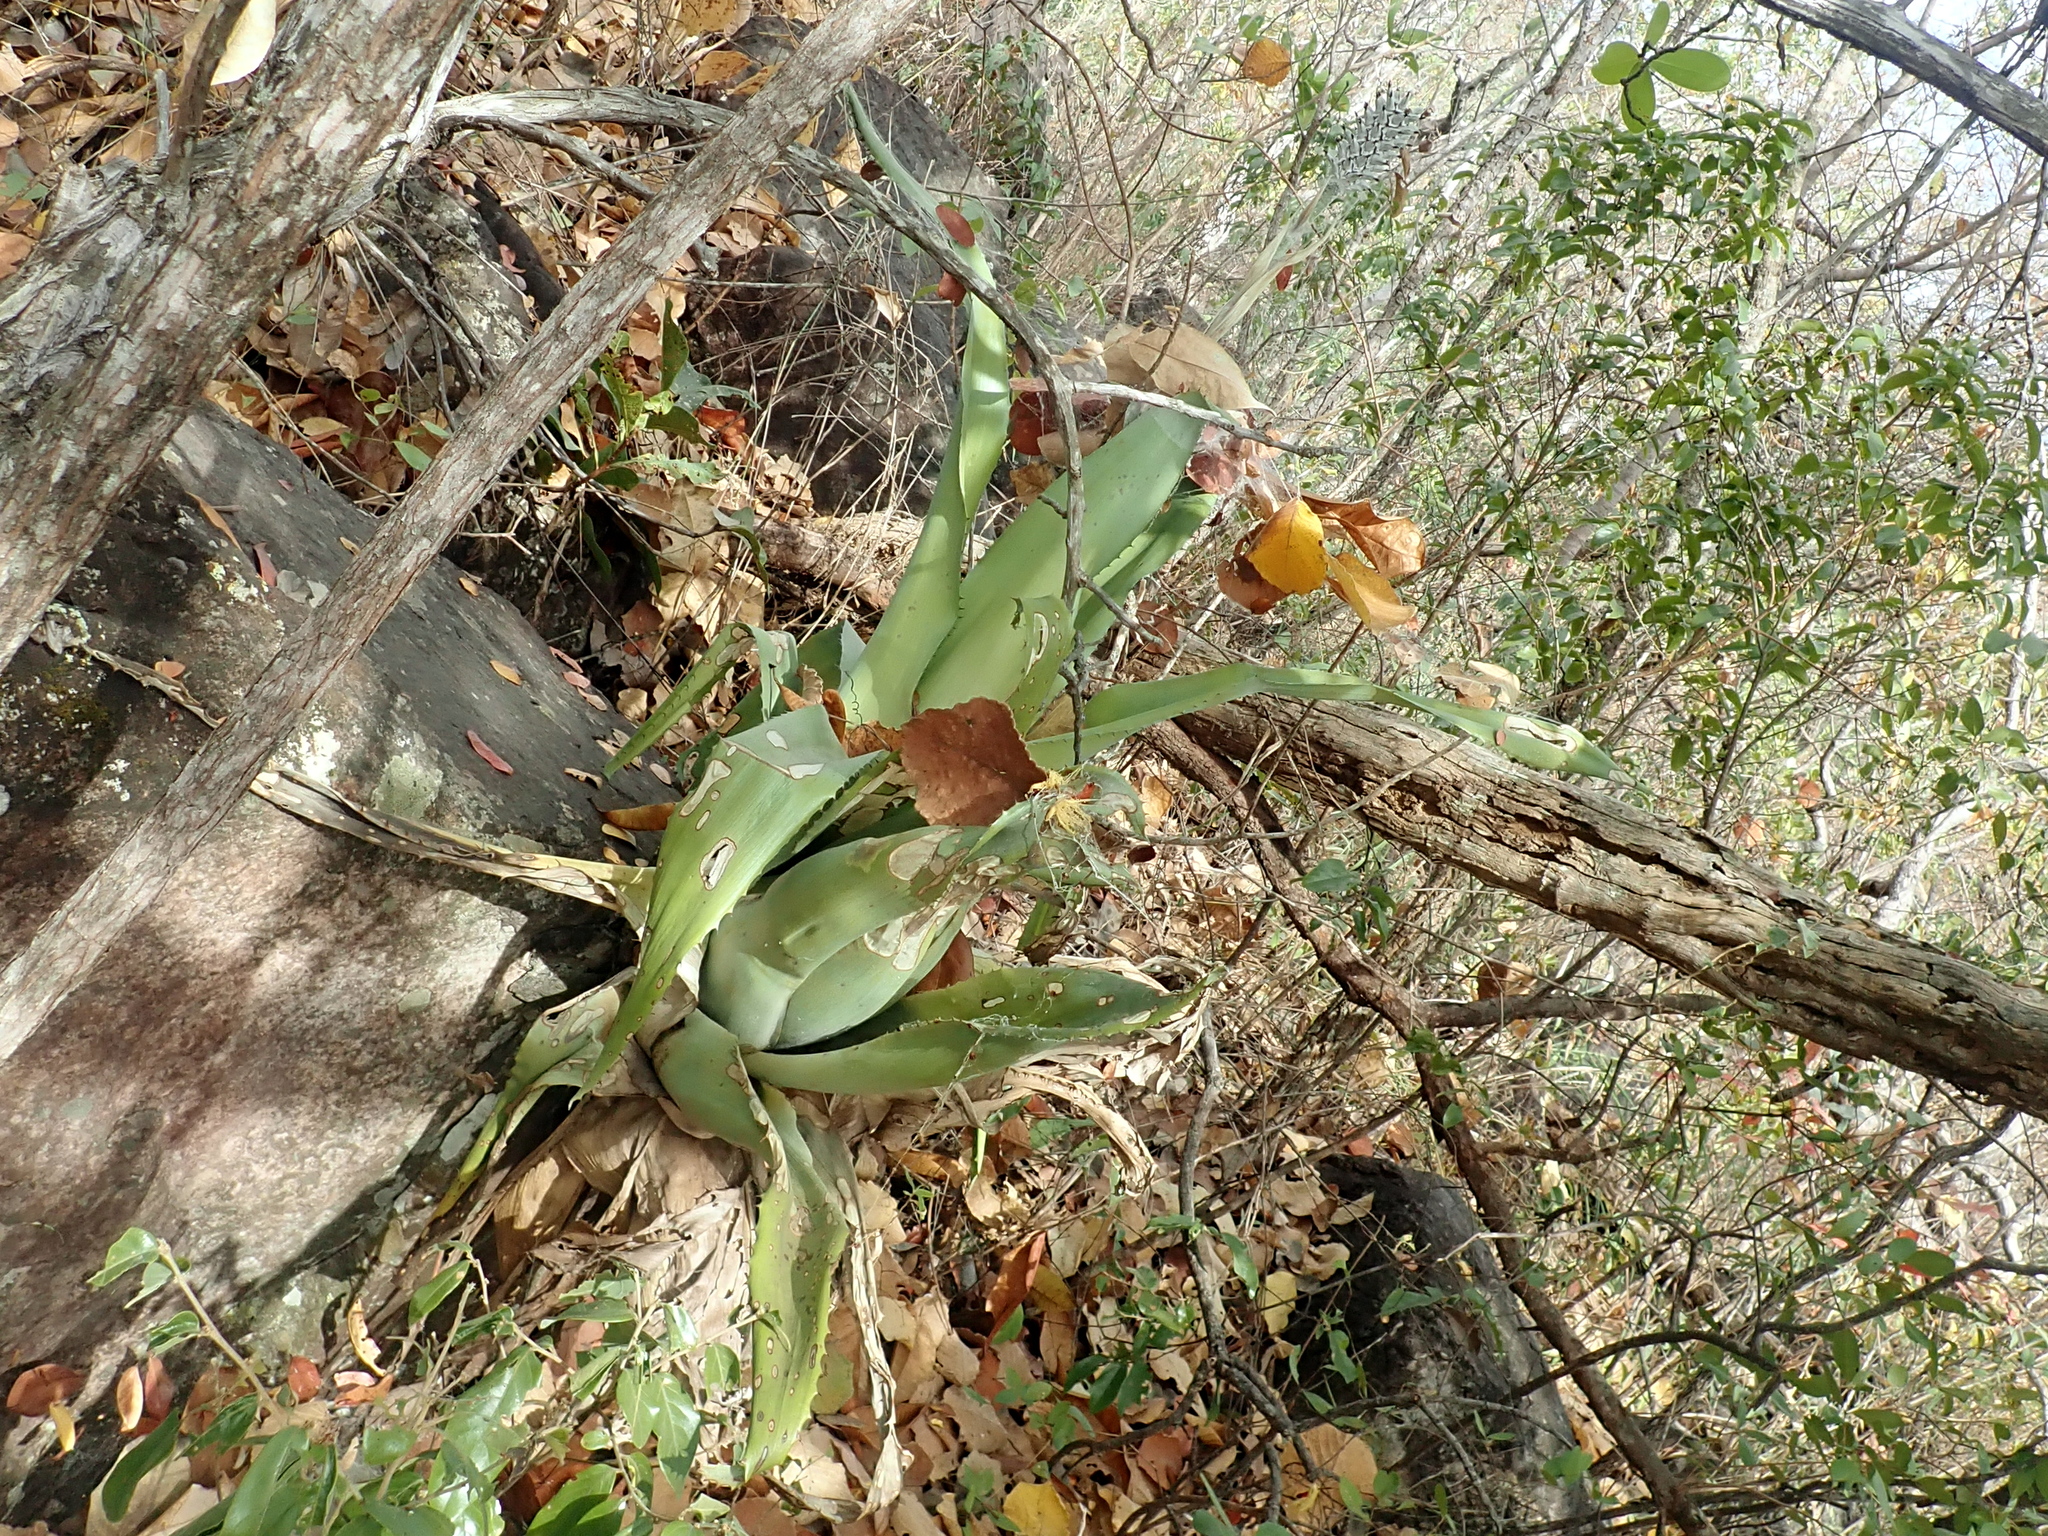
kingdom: Plantae
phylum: Tracheophyta
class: Liliopsida
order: Poales
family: Bromeliaceae
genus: Aechmea
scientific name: Aechmea bromeliifolia
